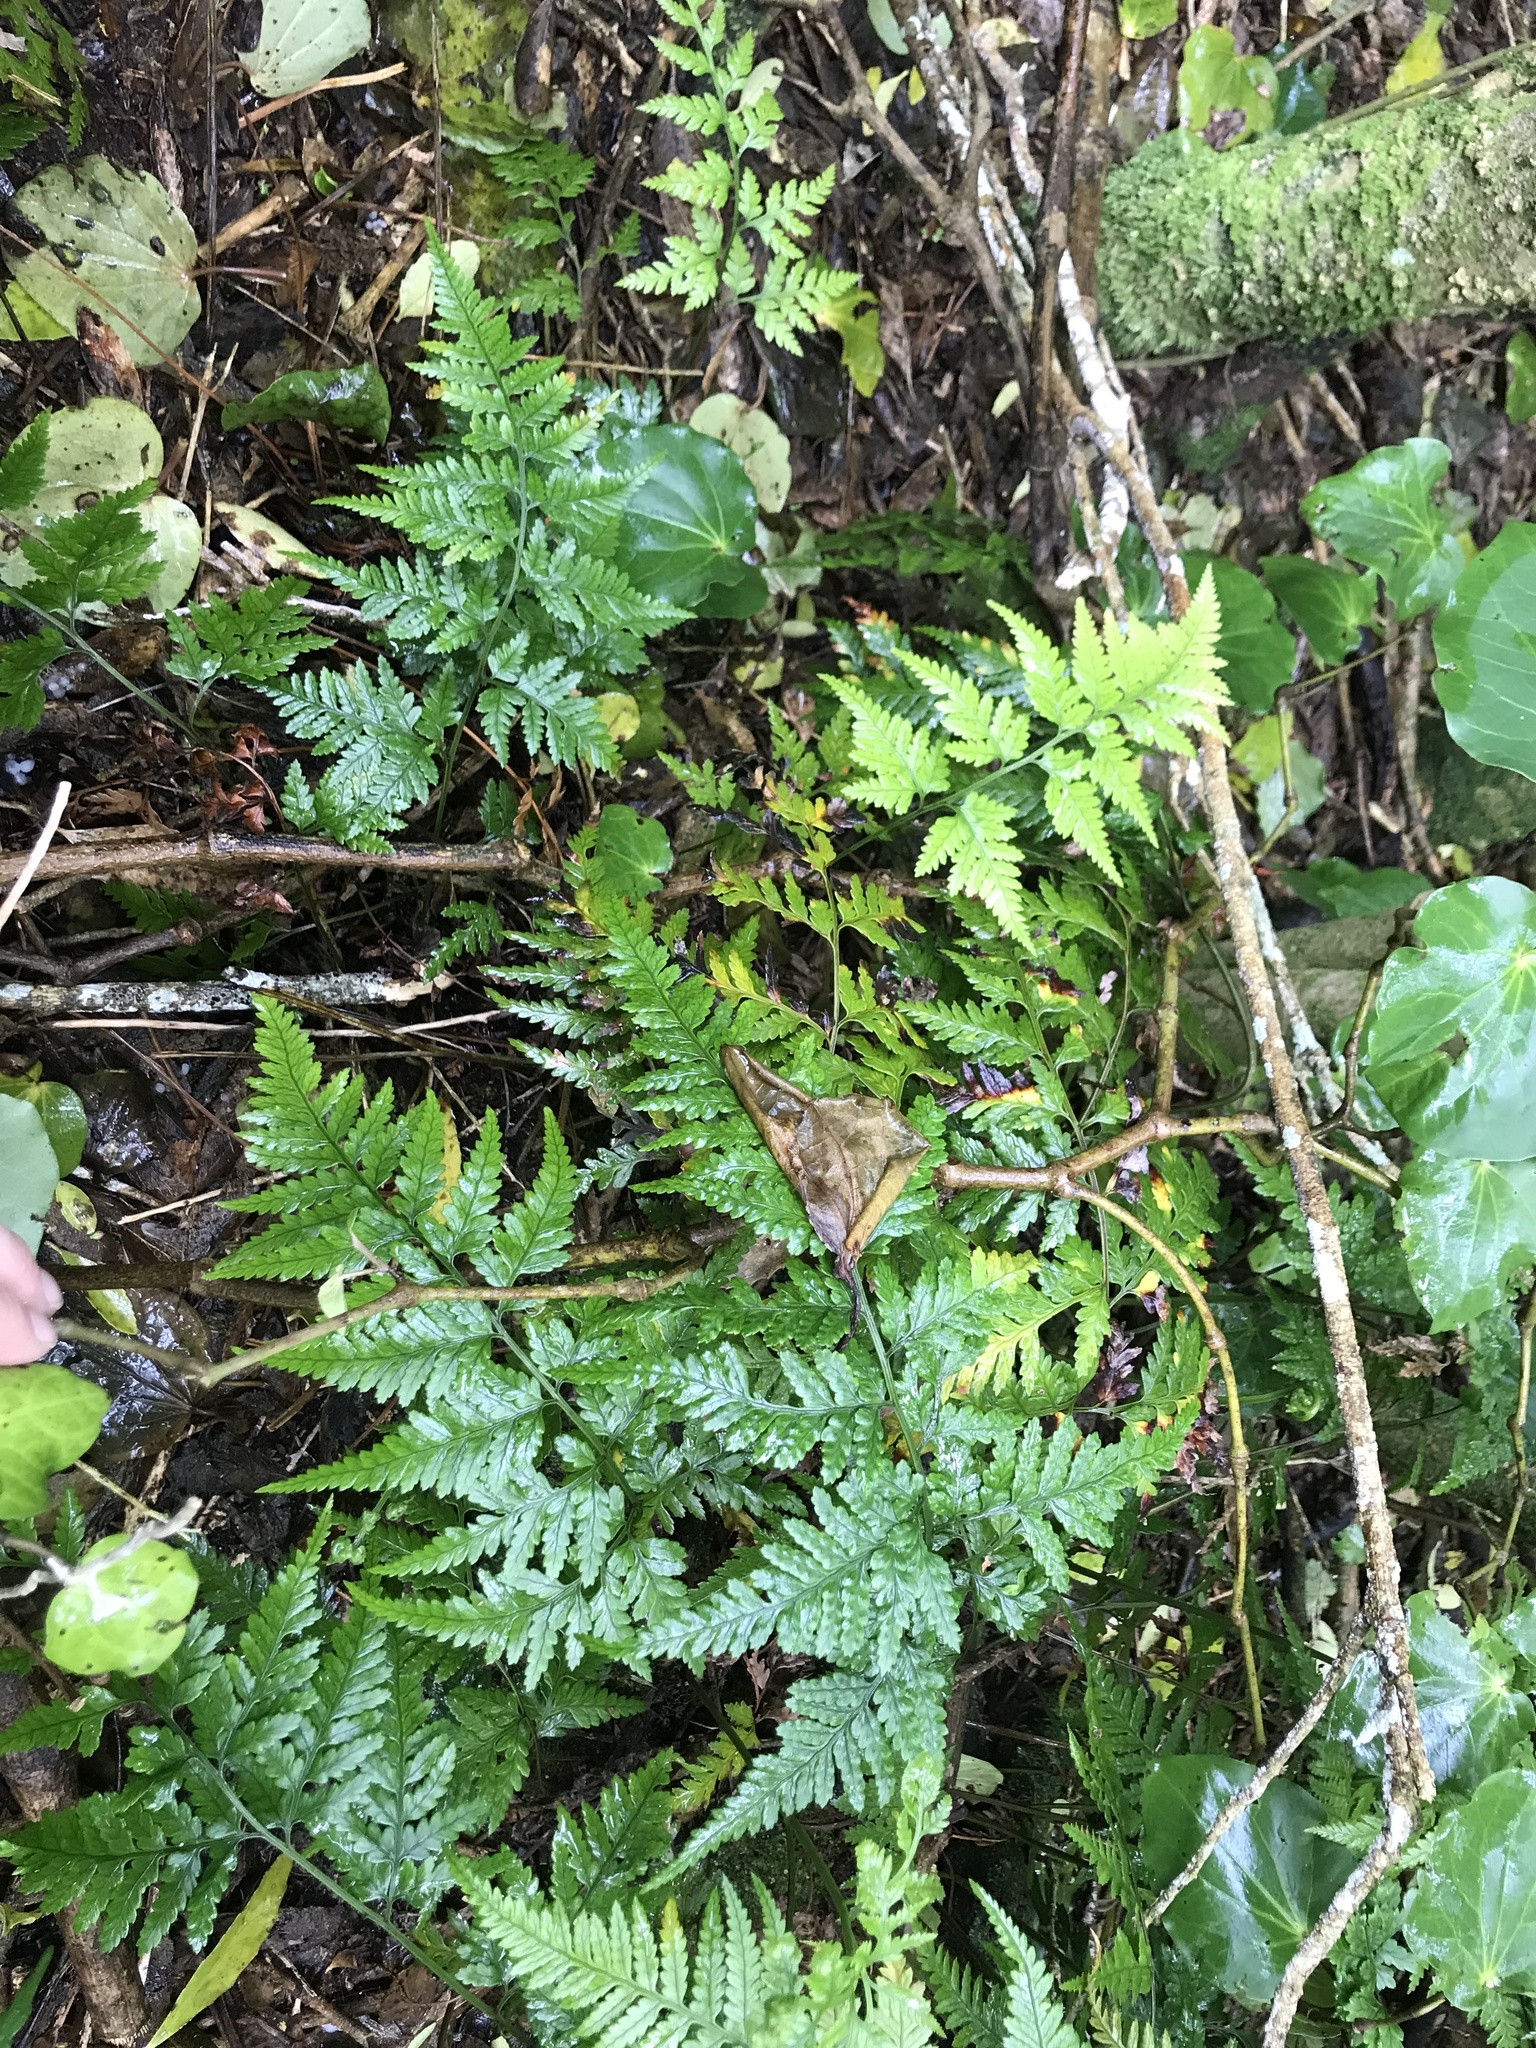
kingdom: Plantae
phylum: Tracheophyta
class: Polypodiopsida
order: Polypodiales
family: Dryopteridaceae
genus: Rumohra
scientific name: Rumohra adiantiformis
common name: Leather fern
